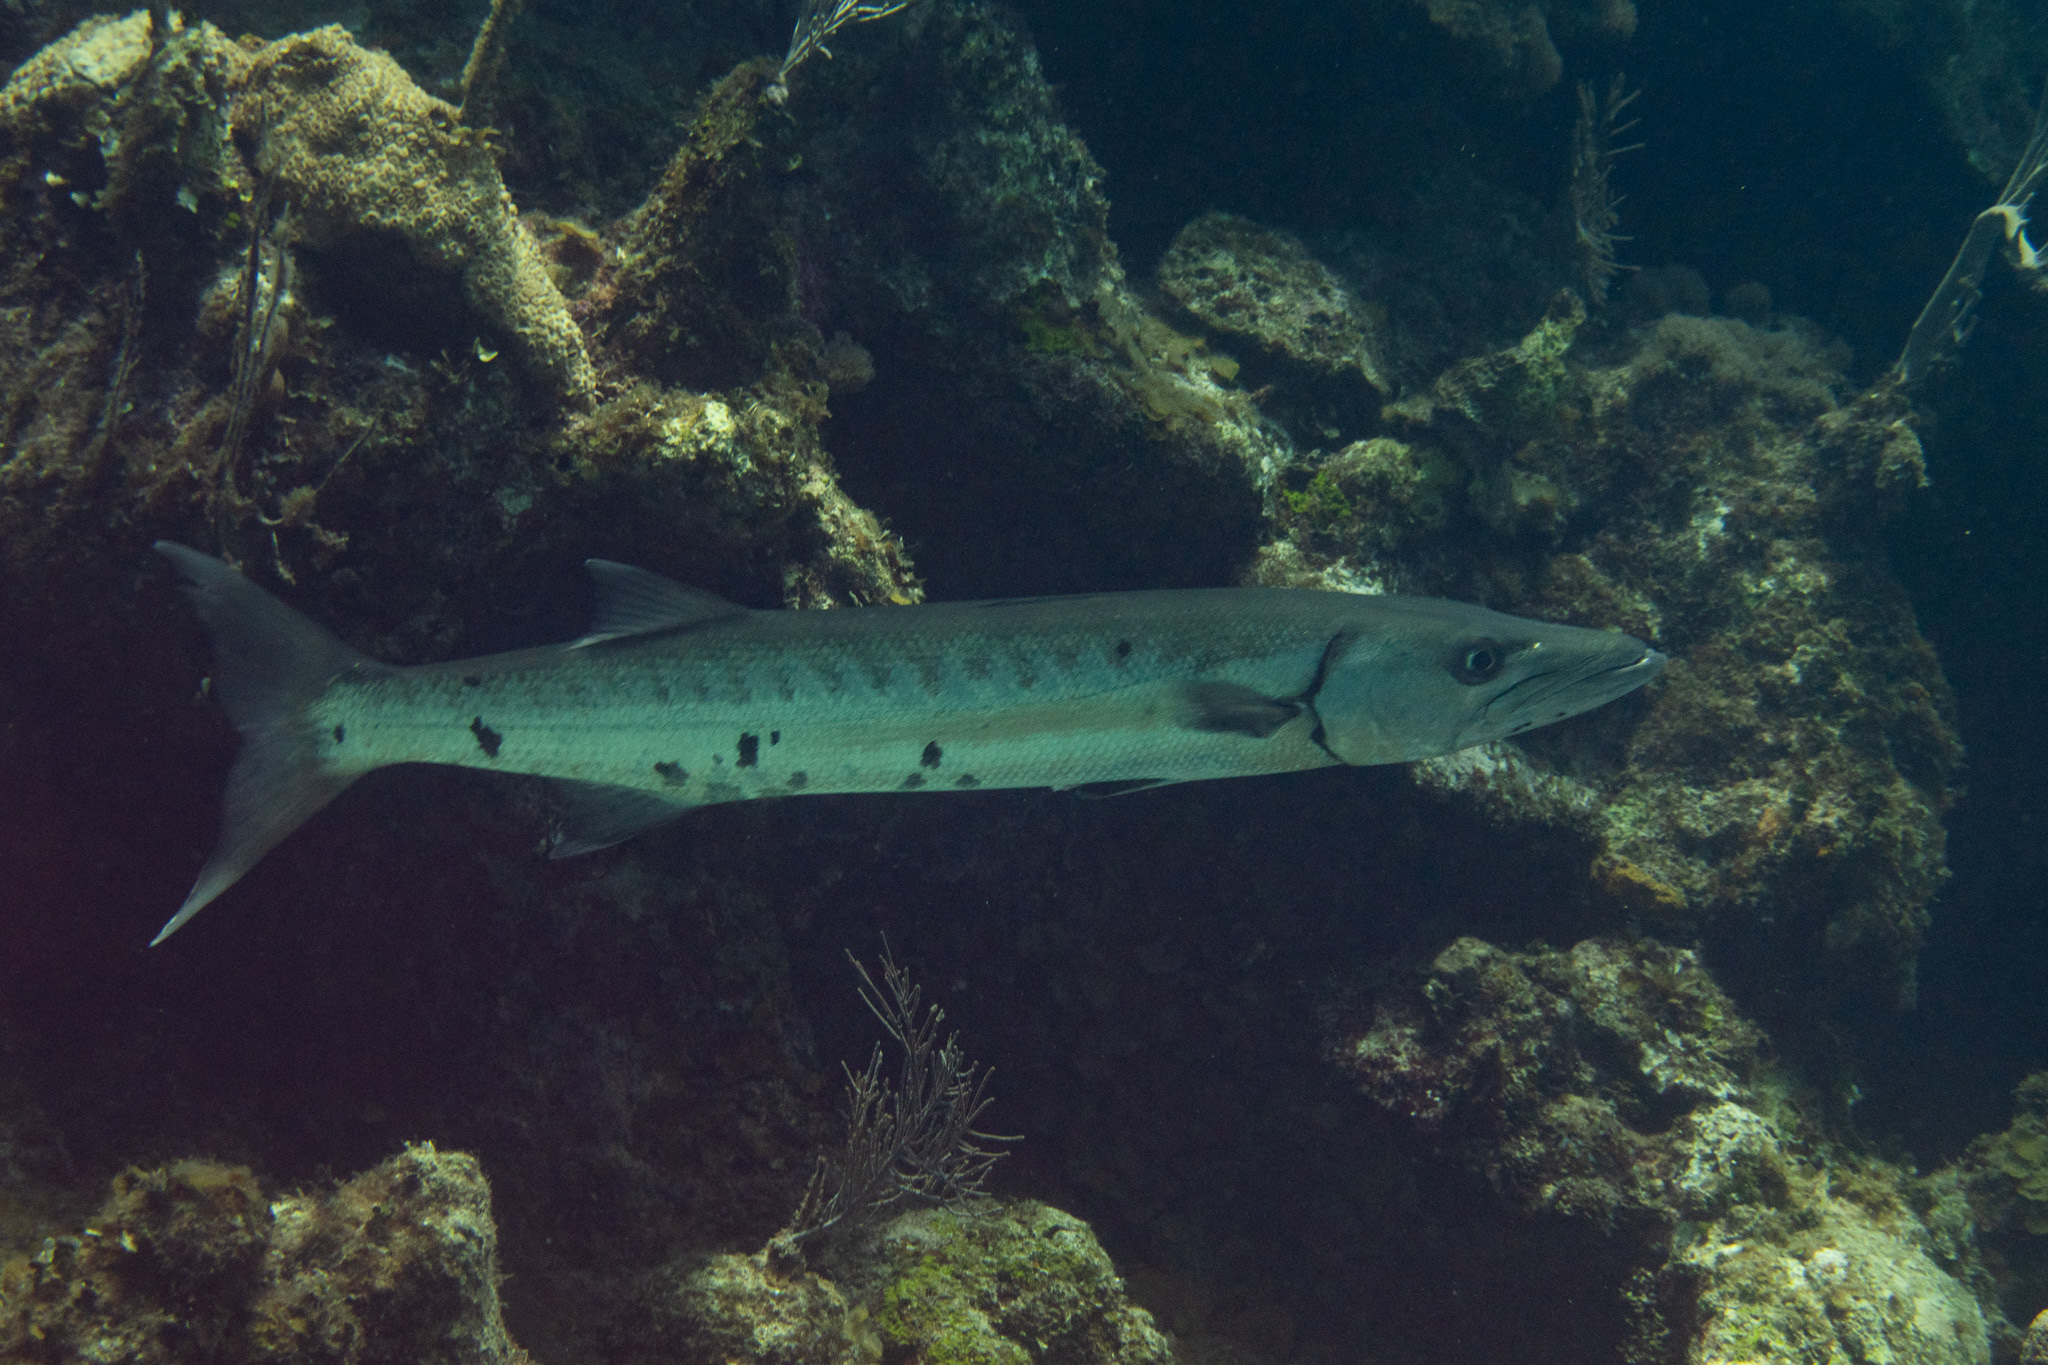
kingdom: Animalia
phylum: Chordata
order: Perciformes
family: Sphyraenidae
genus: Sphyraena
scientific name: Sphyraena barracuda
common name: Great barracuda
